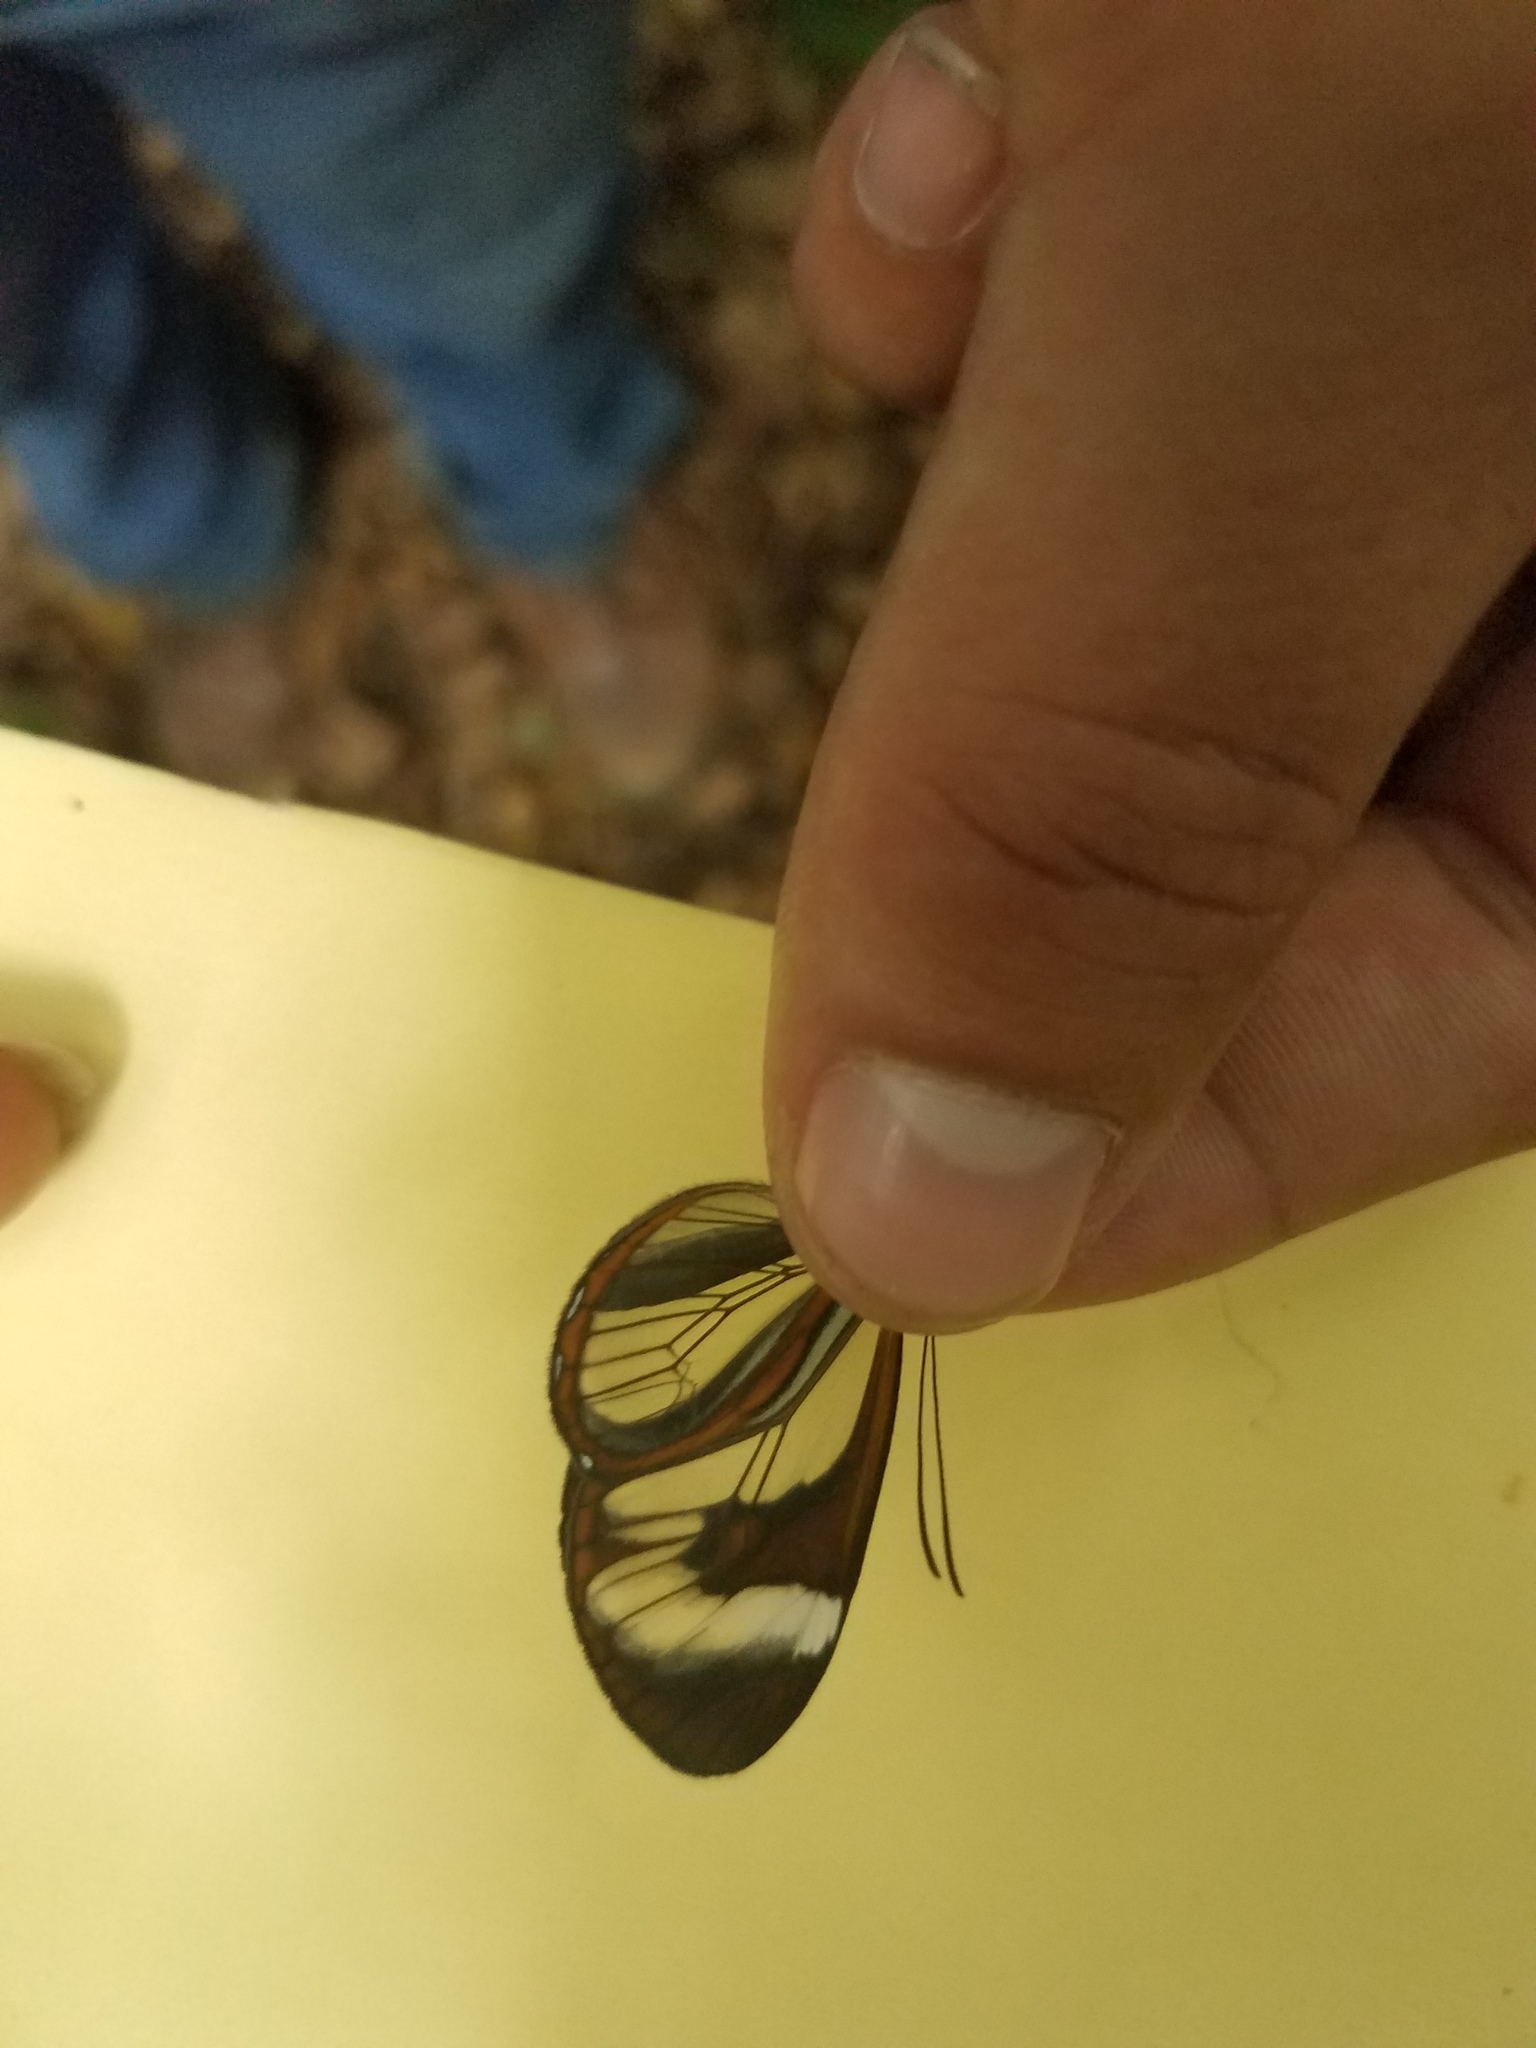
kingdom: Animalia
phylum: Arthropoda
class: Insecta
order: Lepidoptera
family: Nymphalidae
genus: Ithomia
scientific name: Ithomia patilla
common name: Patilla clearwing
